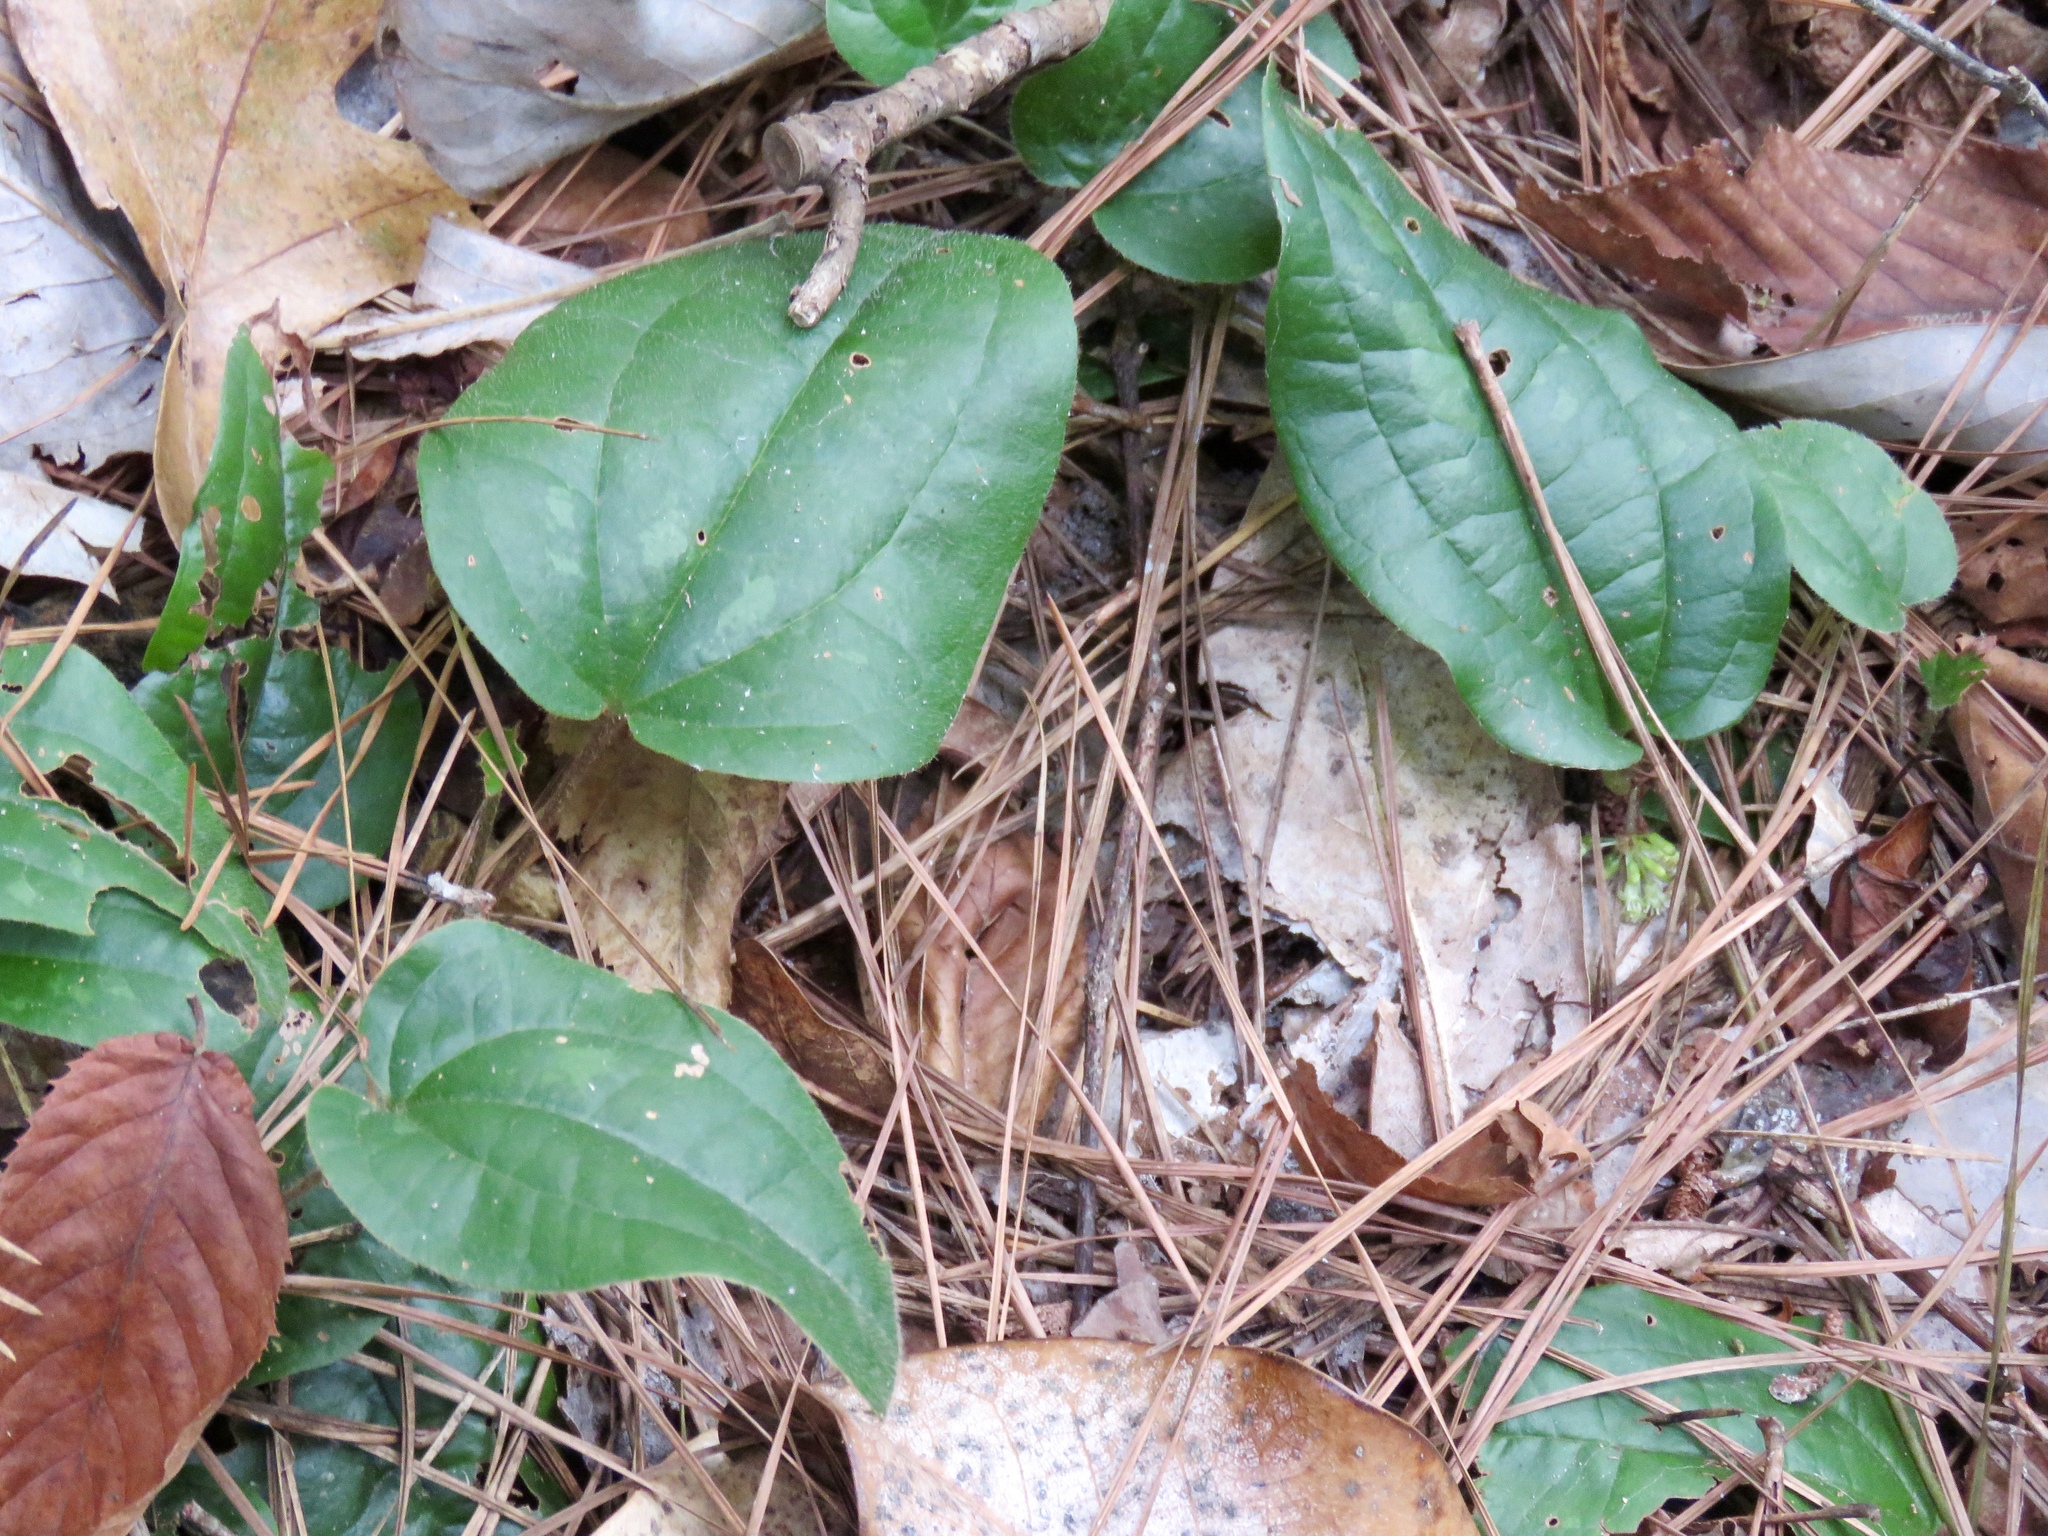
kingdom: Plantae
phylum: Tracheophyta
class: Liliopsida
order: Liliales
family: Smilacaceae
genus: Smilax
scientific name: Smilax pumila
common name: Sarsaparilla-vine
